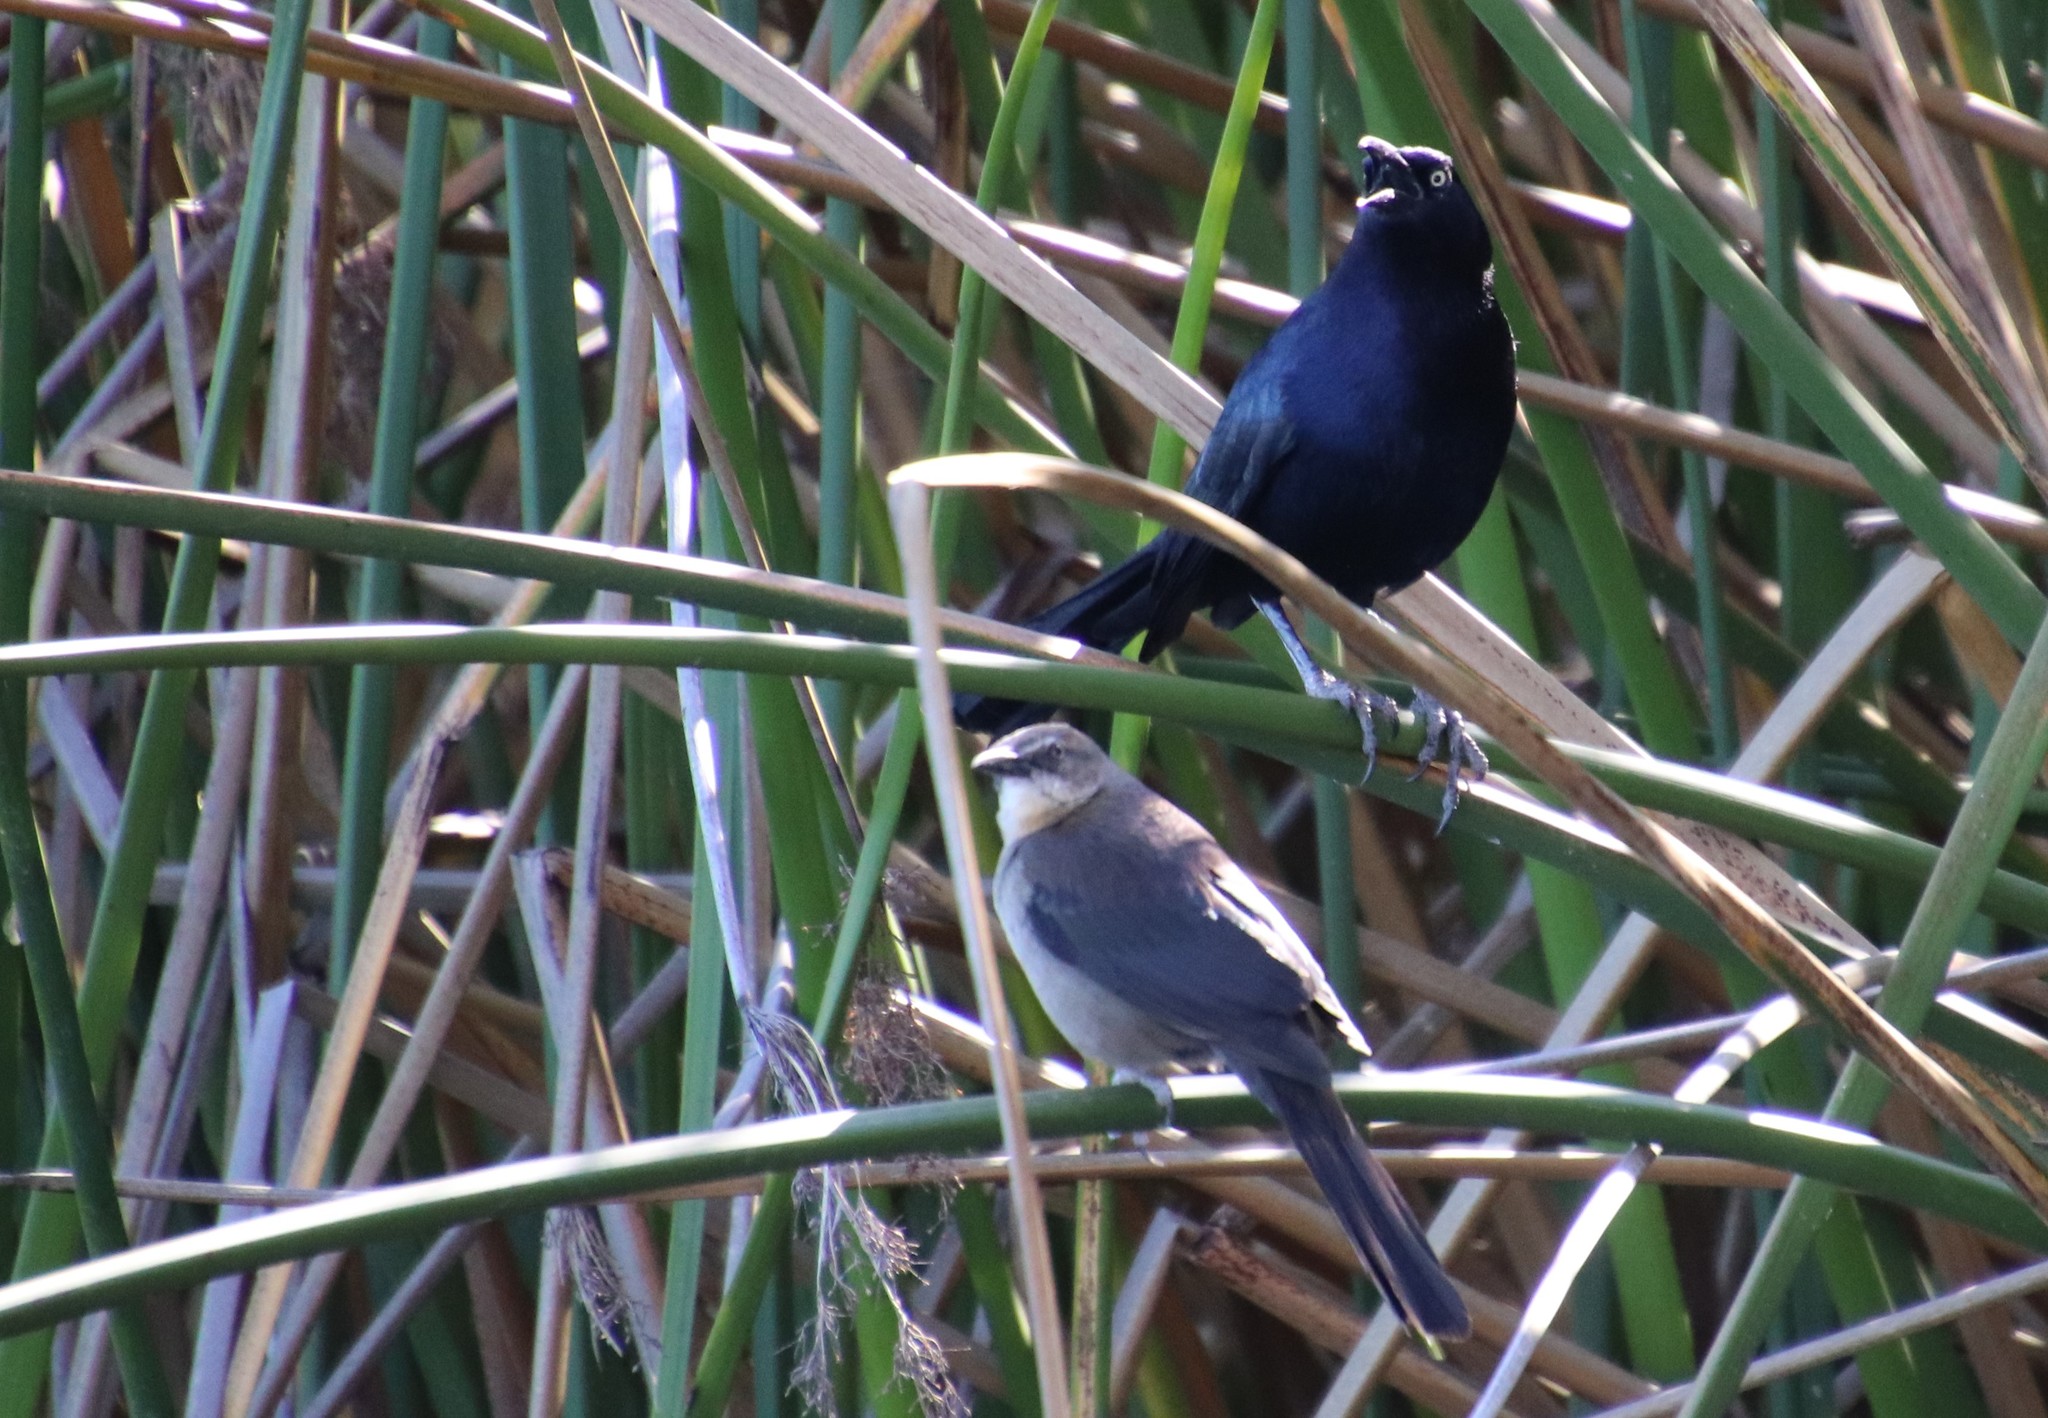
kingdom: Animalia
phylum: Chordata
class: Aves
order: Passeriformes
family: Icteridae
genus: Quiscalus
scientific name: Quiscalus mexicanus
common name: Great-tailed grackle
